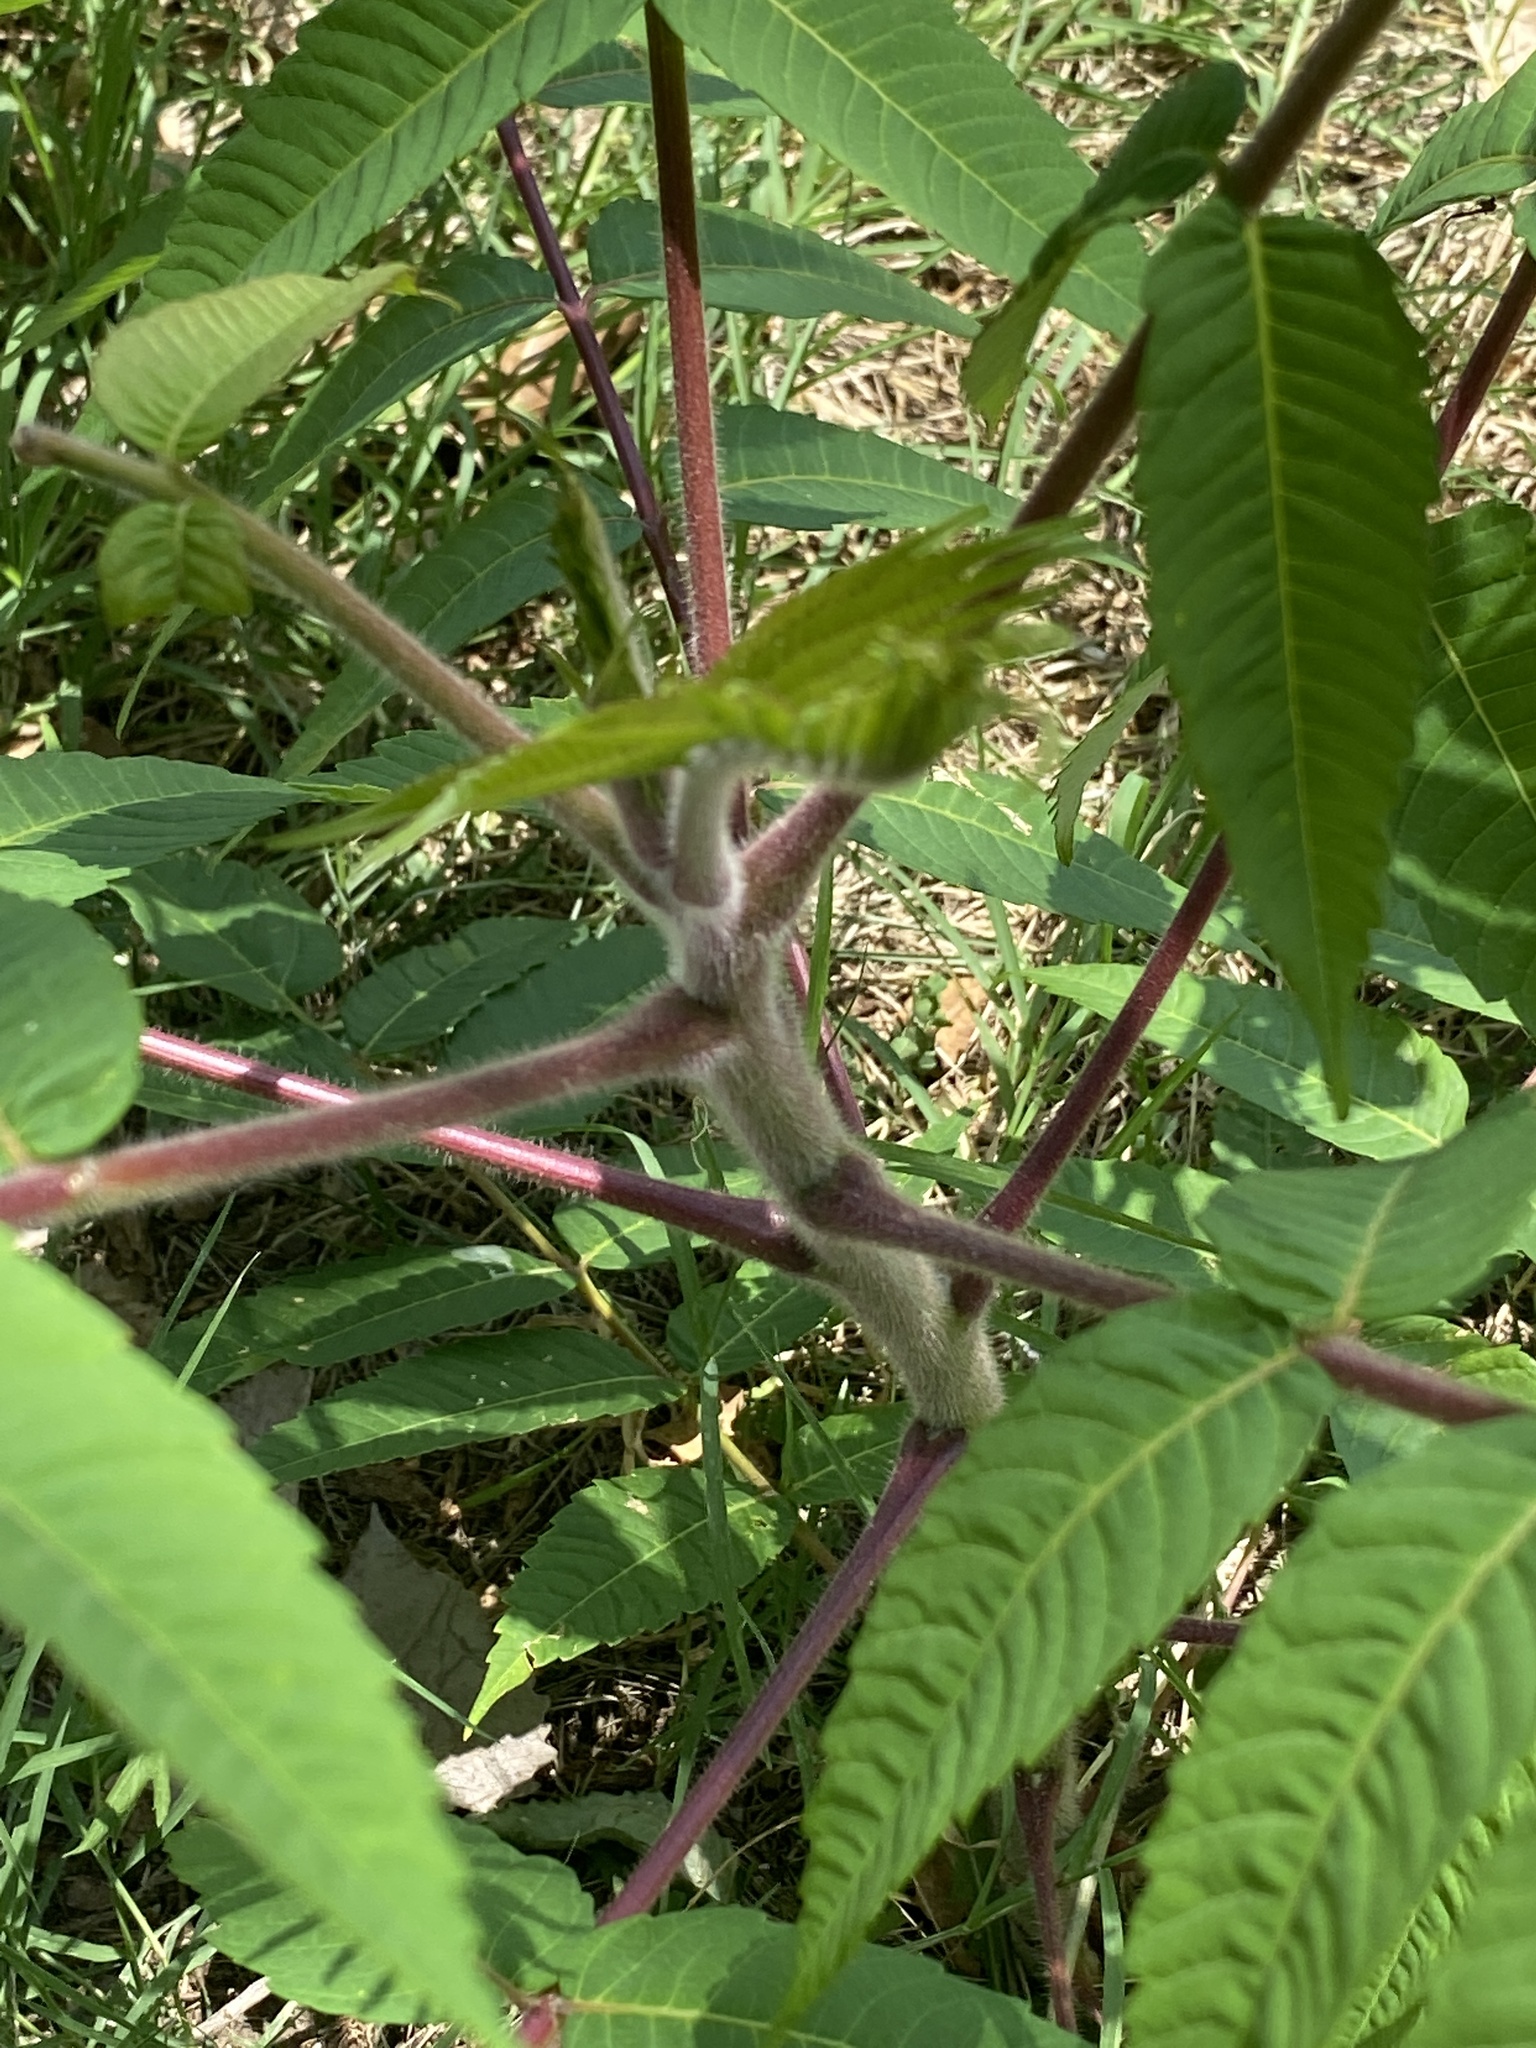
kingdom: Plantae
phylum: Tracheophyta
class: Magnoliopsida
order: Sapindales
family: Anacardiaceae
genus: Rhus
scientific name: Rhus typhina
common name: Staghorn sumac
